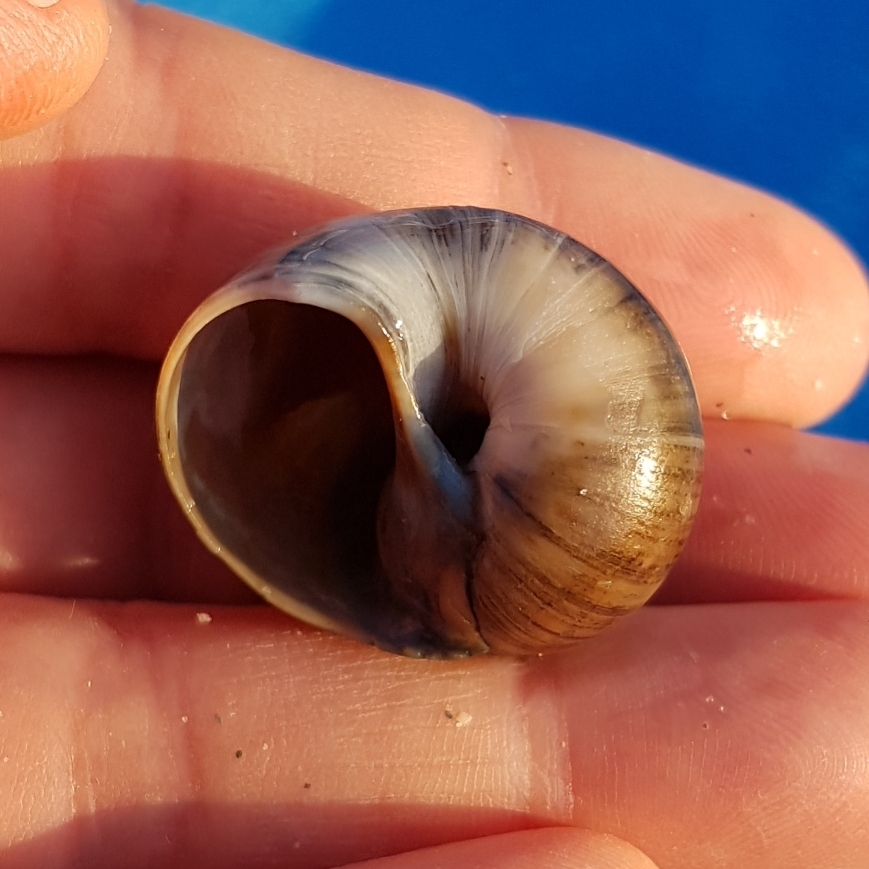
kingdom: Animalia
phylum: Mollusca
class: Gastropoda
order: Littorinimorpha
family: Naticidae
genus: Euspira
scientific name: Euspira catena
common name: Necklace shell
